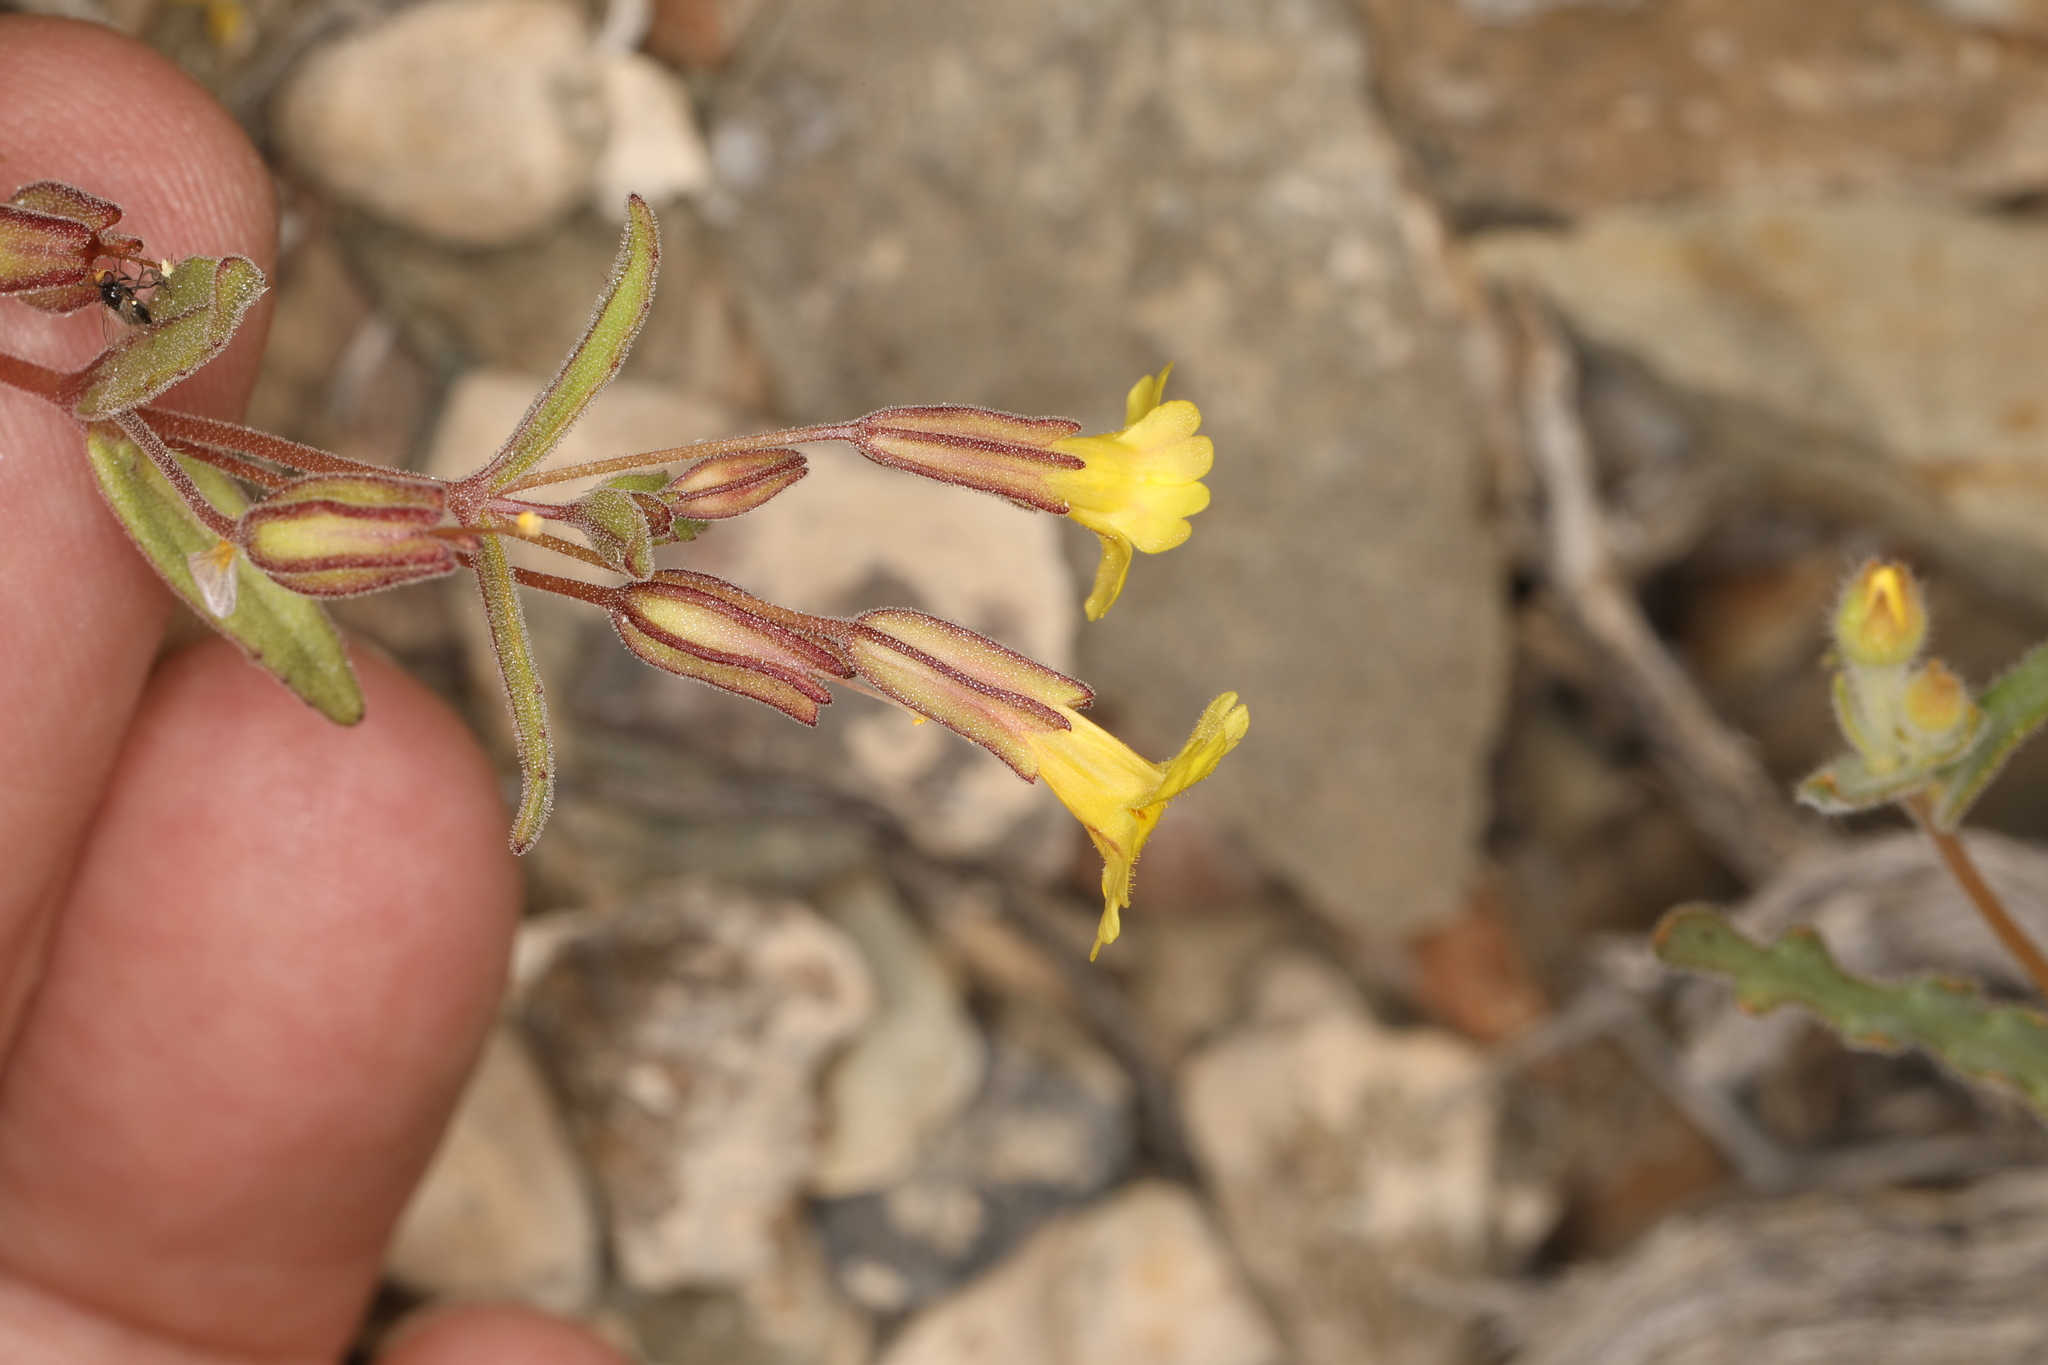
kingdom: Plantae
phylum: Tracheophyta
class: Magnoliopsida
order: Lamiales
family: Phrymaceae
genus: Erythranthe
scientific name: Erythranthe calcicola
